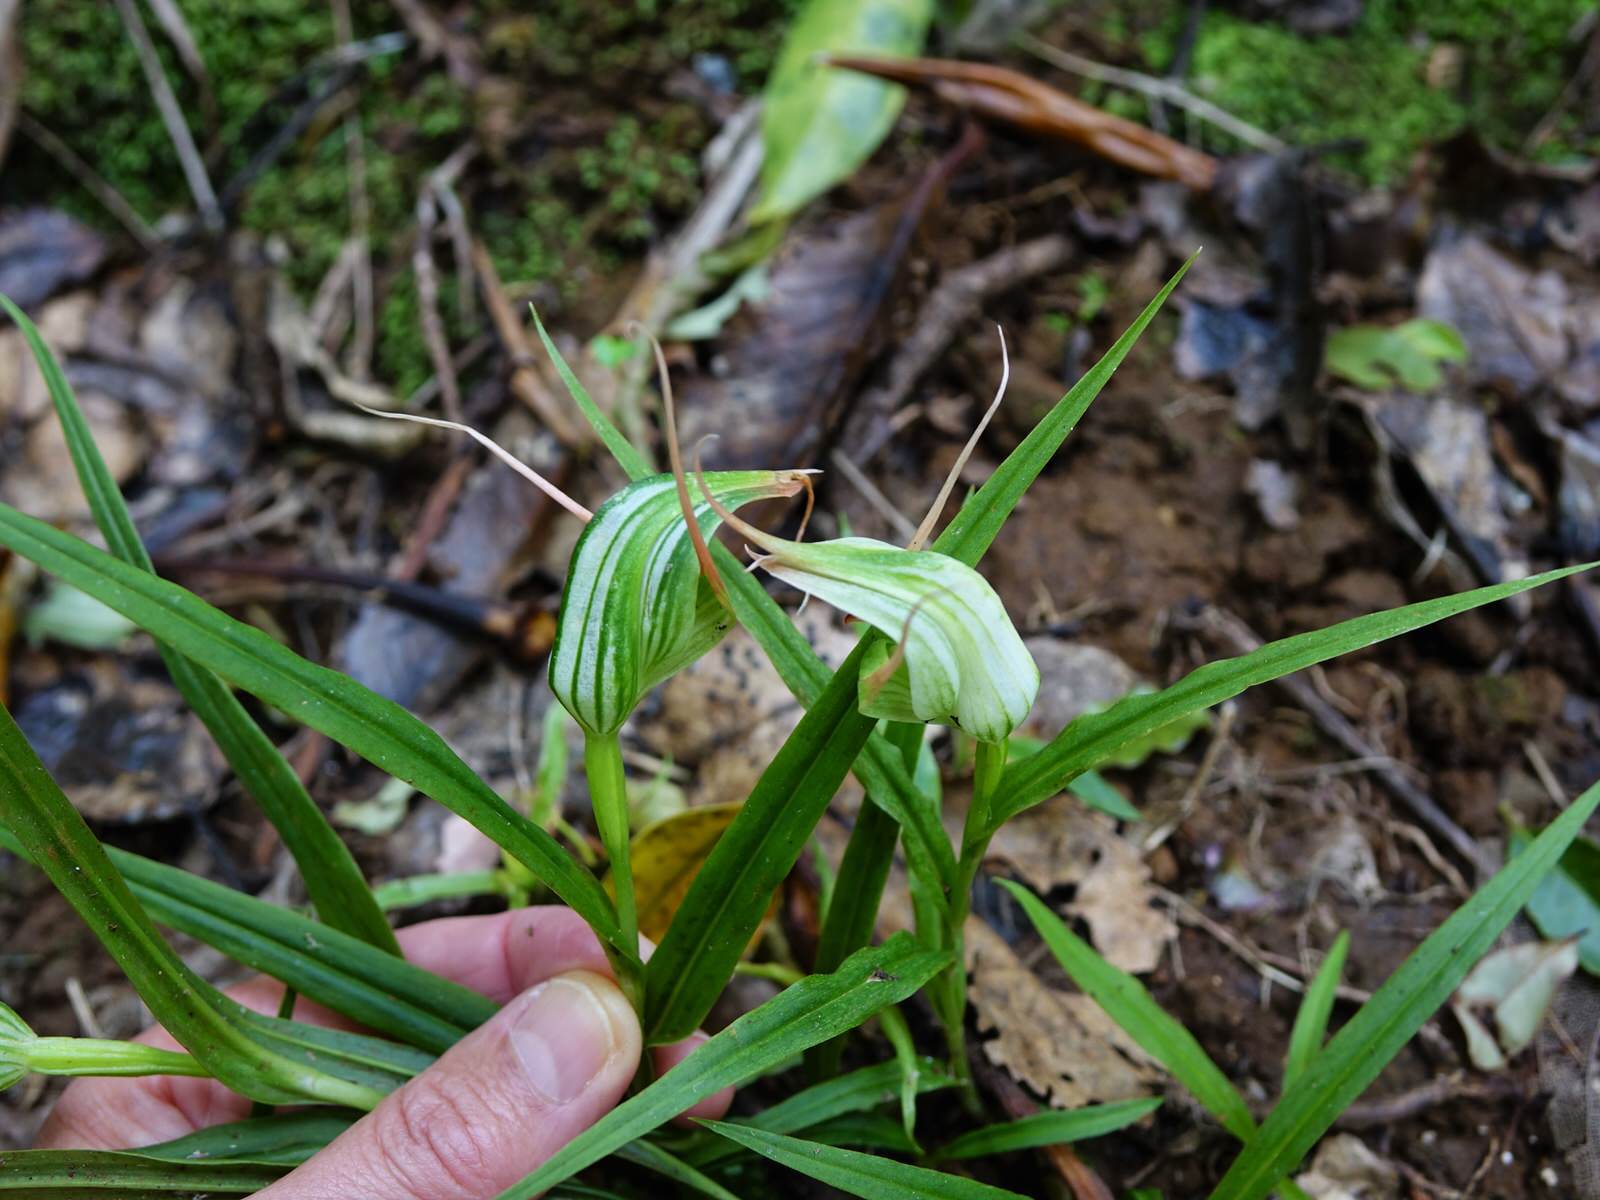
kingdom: Plantae
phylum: Tracheophyta
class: Liliopsida
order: Asparagales
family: Orchidaceae
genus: Pterostylis
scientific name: Pterostylis banksii
